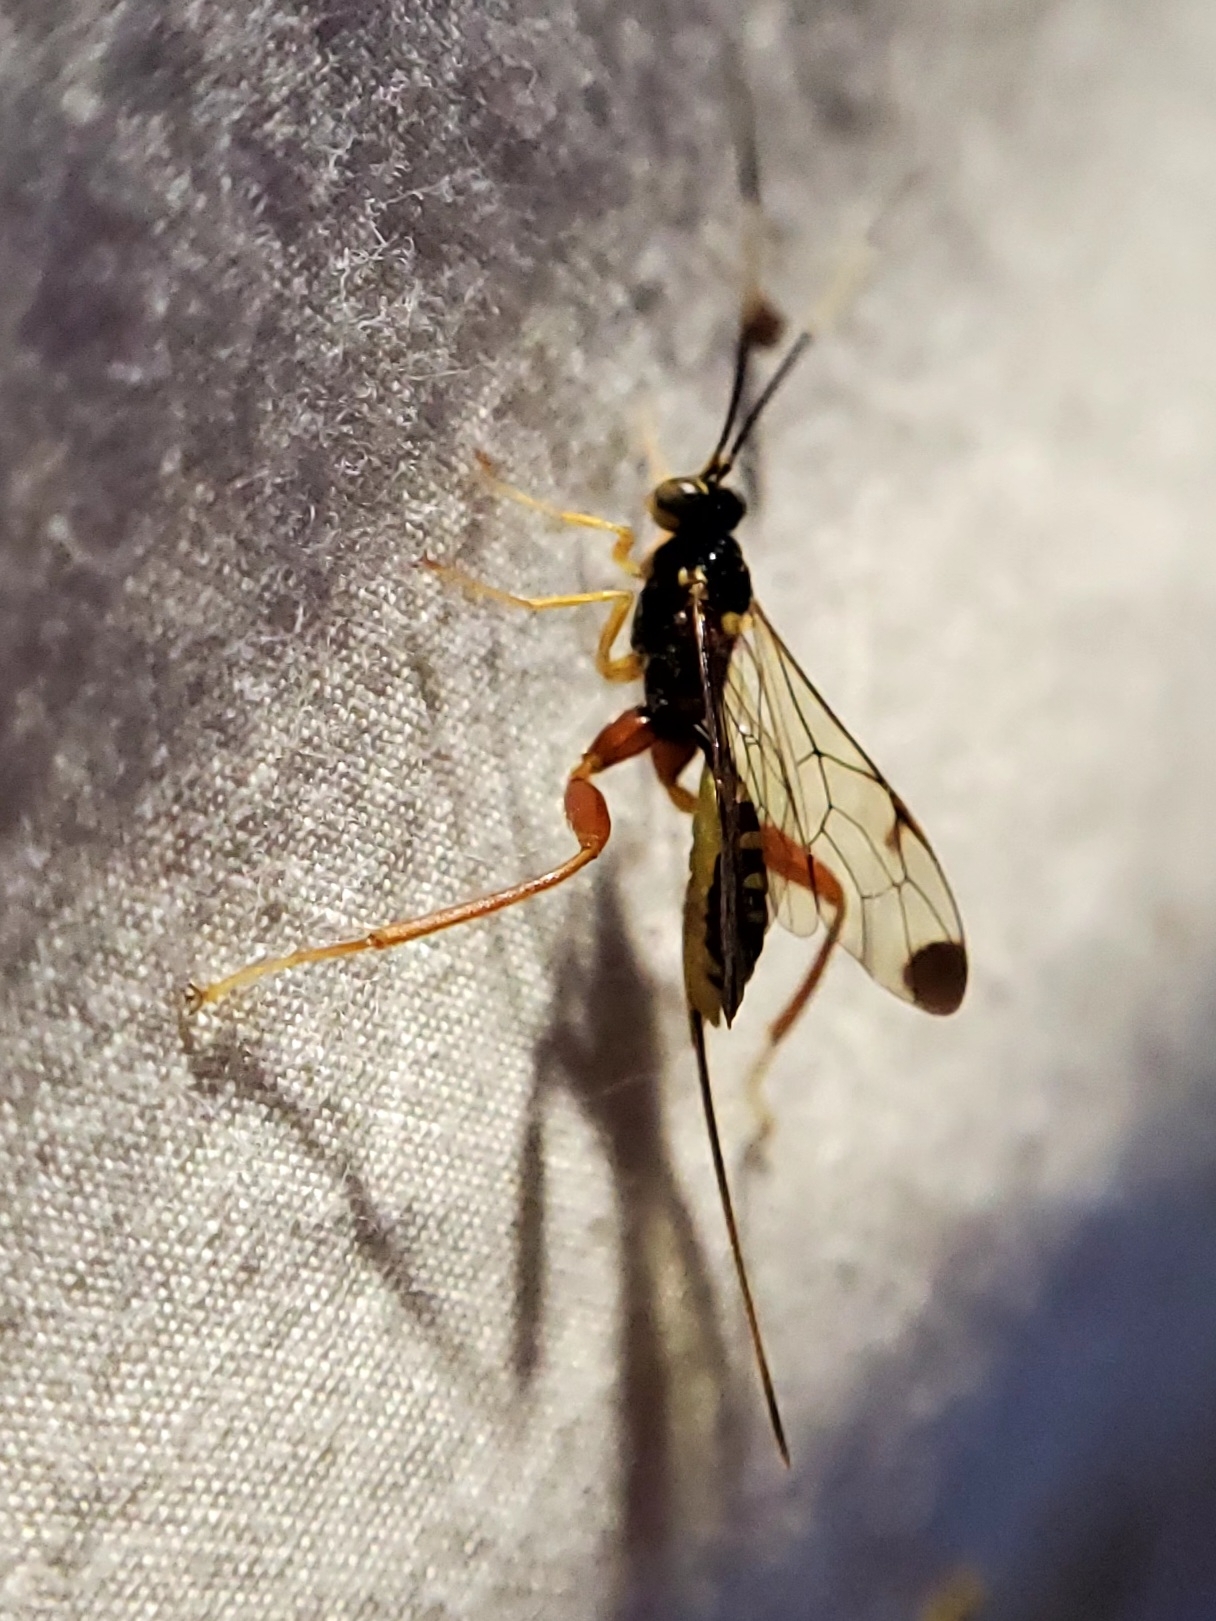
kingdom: Animalia
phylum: Arthropoda
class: Insecta
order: Hymenoptera
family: Ichneumonidae
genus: Spilopteron
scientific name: Spilopteron occiputale
